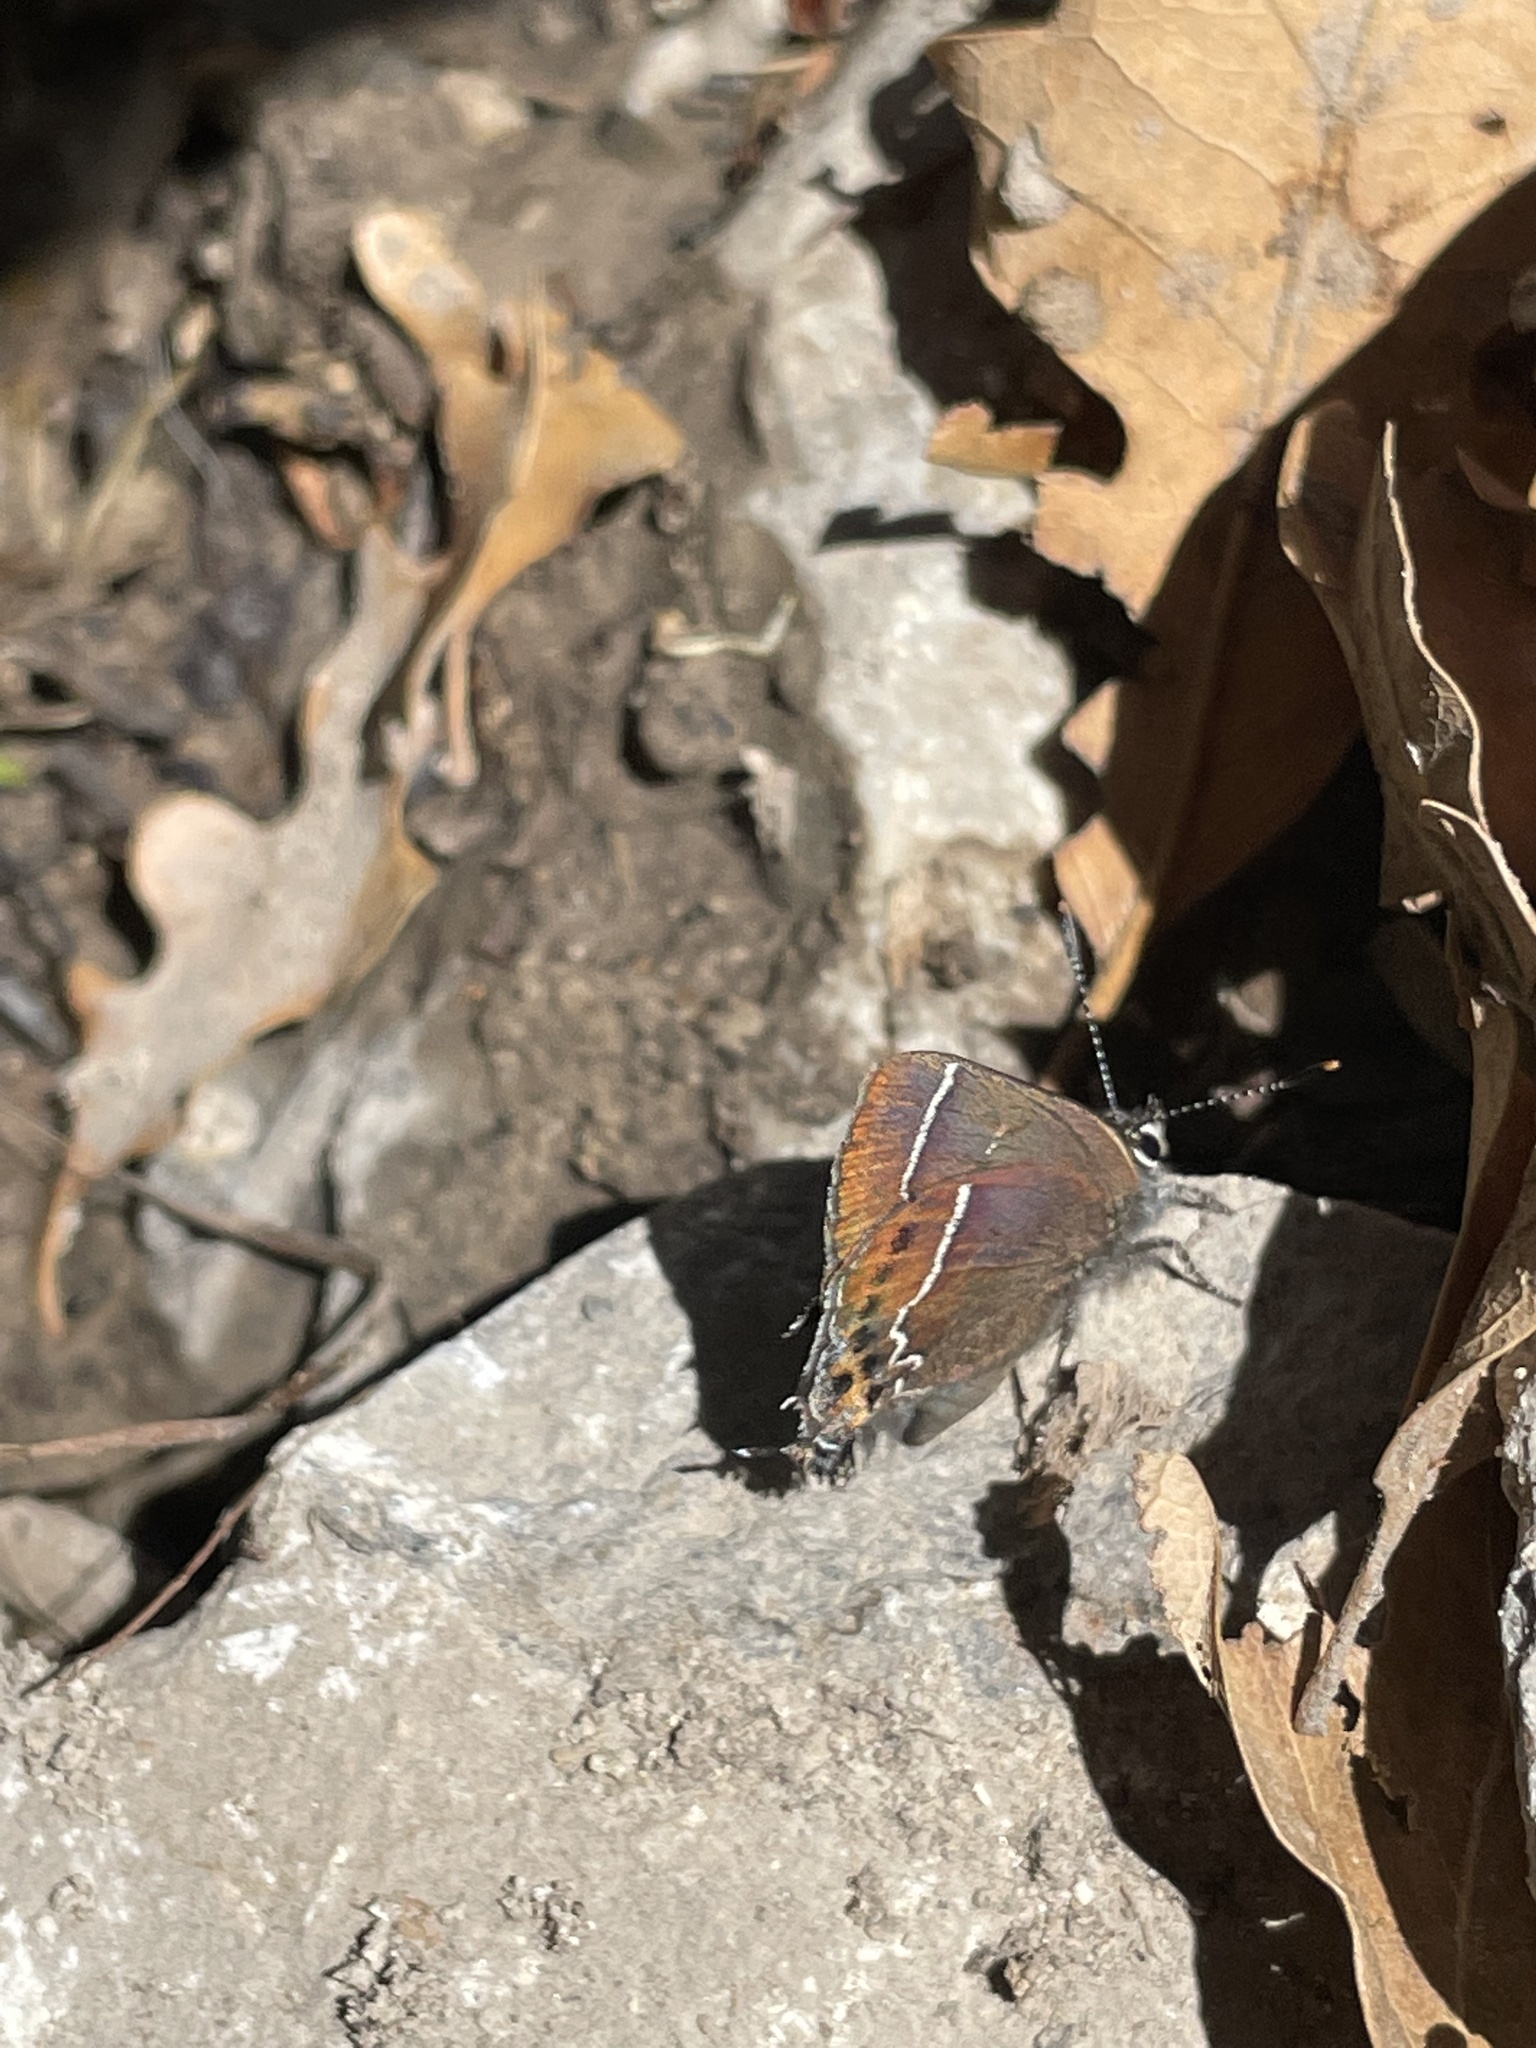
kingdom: Animalia
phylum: Arthropoda
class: Insecta
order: Lepidoptera
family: Lycaenidae
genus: Mitoura
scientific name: Mitoura spinetorum
